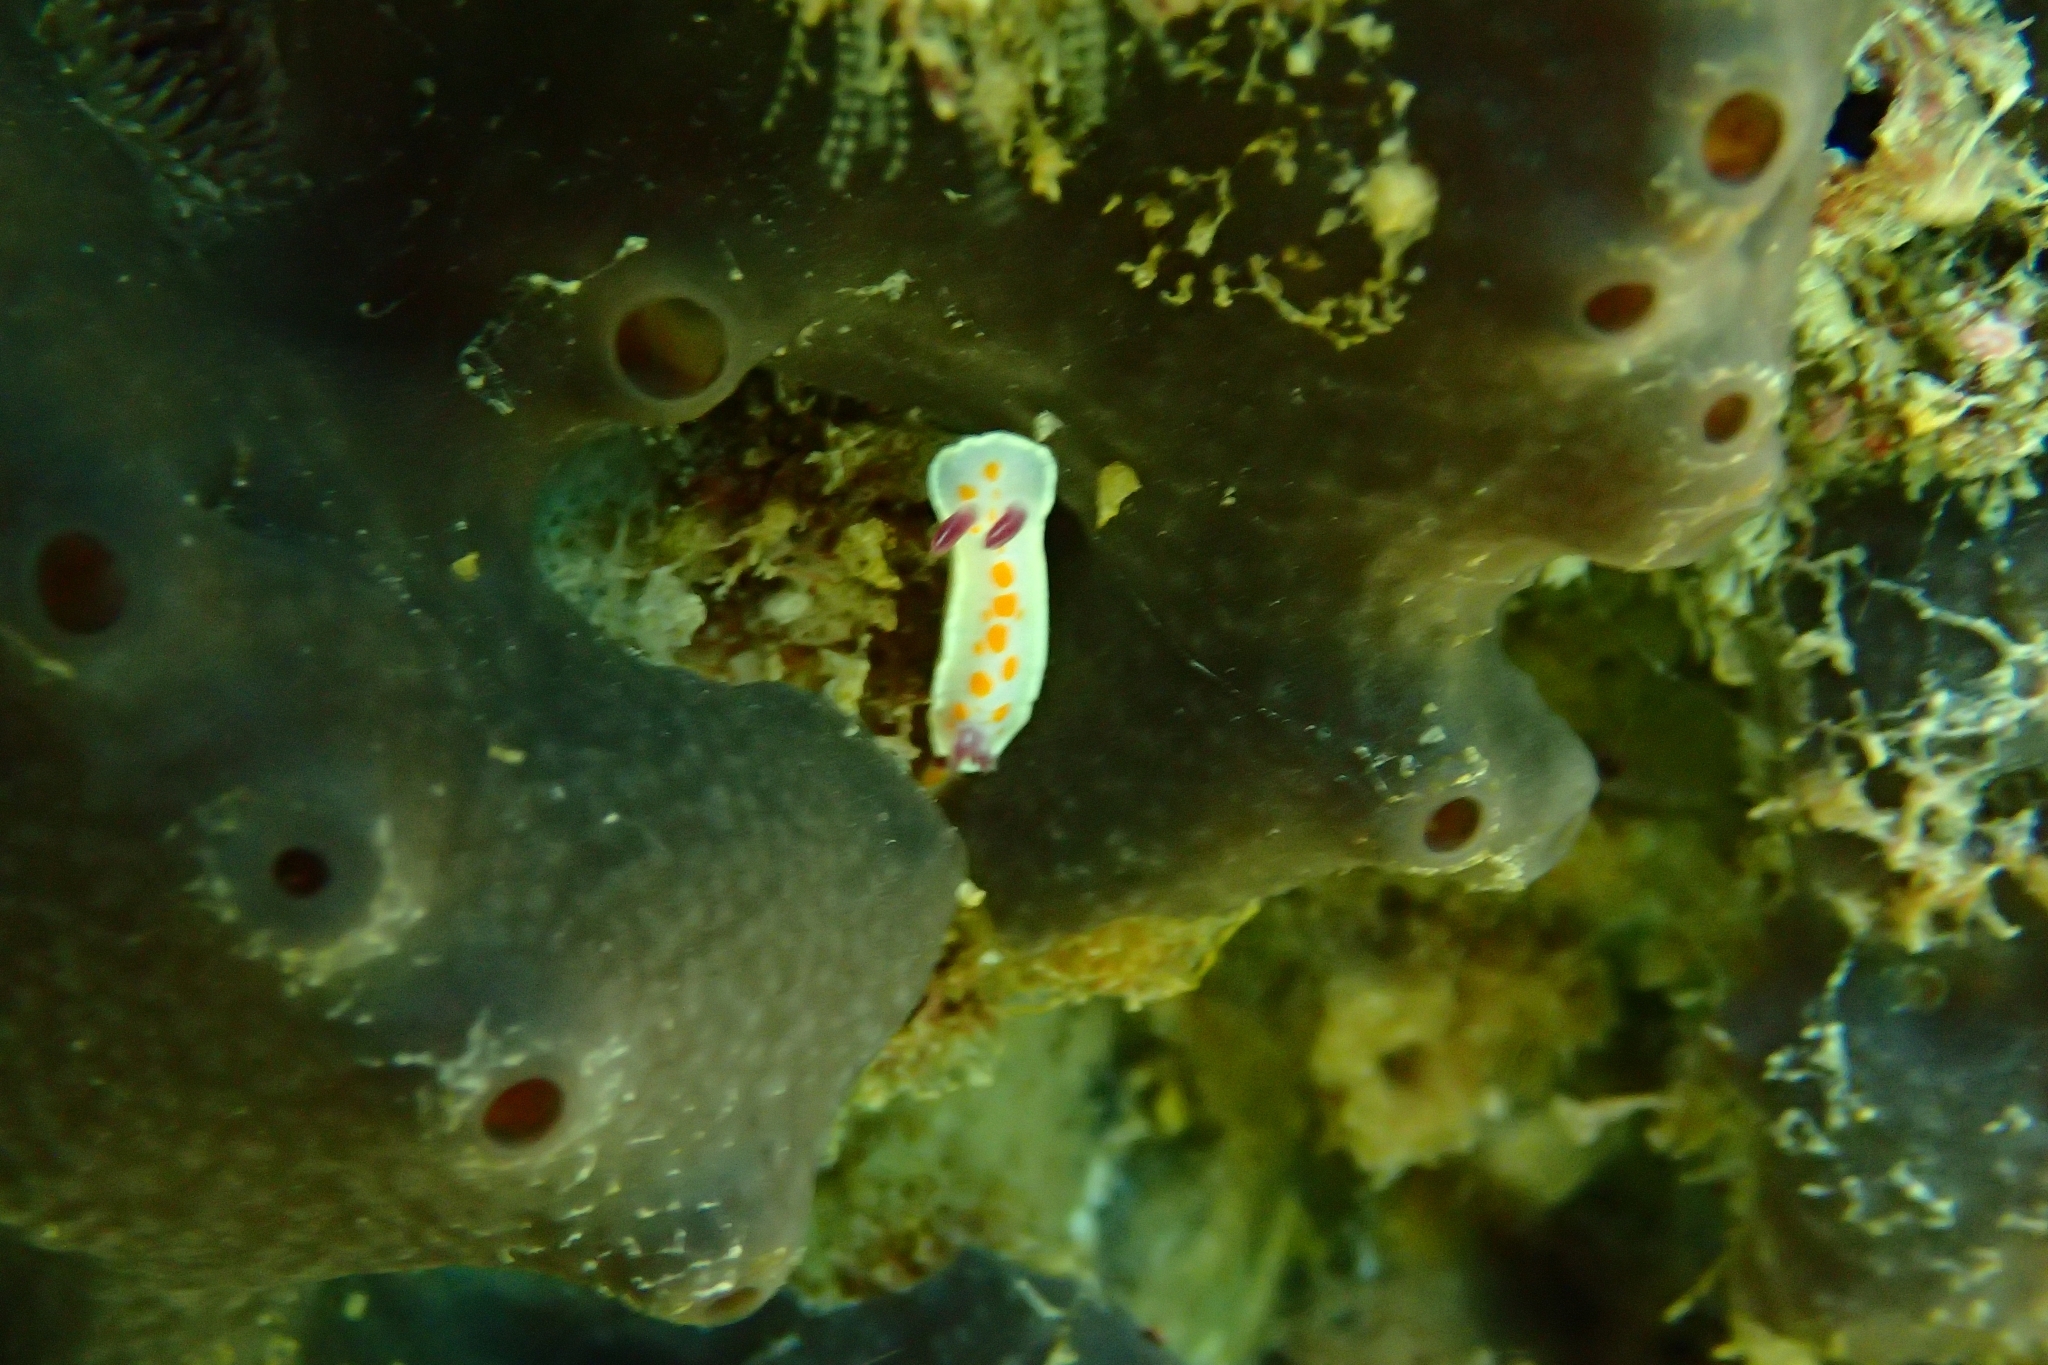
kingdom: Animalia
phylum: Mollusca
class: Gastropoda
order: Nudibranchia
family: Chromodorididae
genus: Ceratosoma
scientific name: Ceratosoma amoenum
